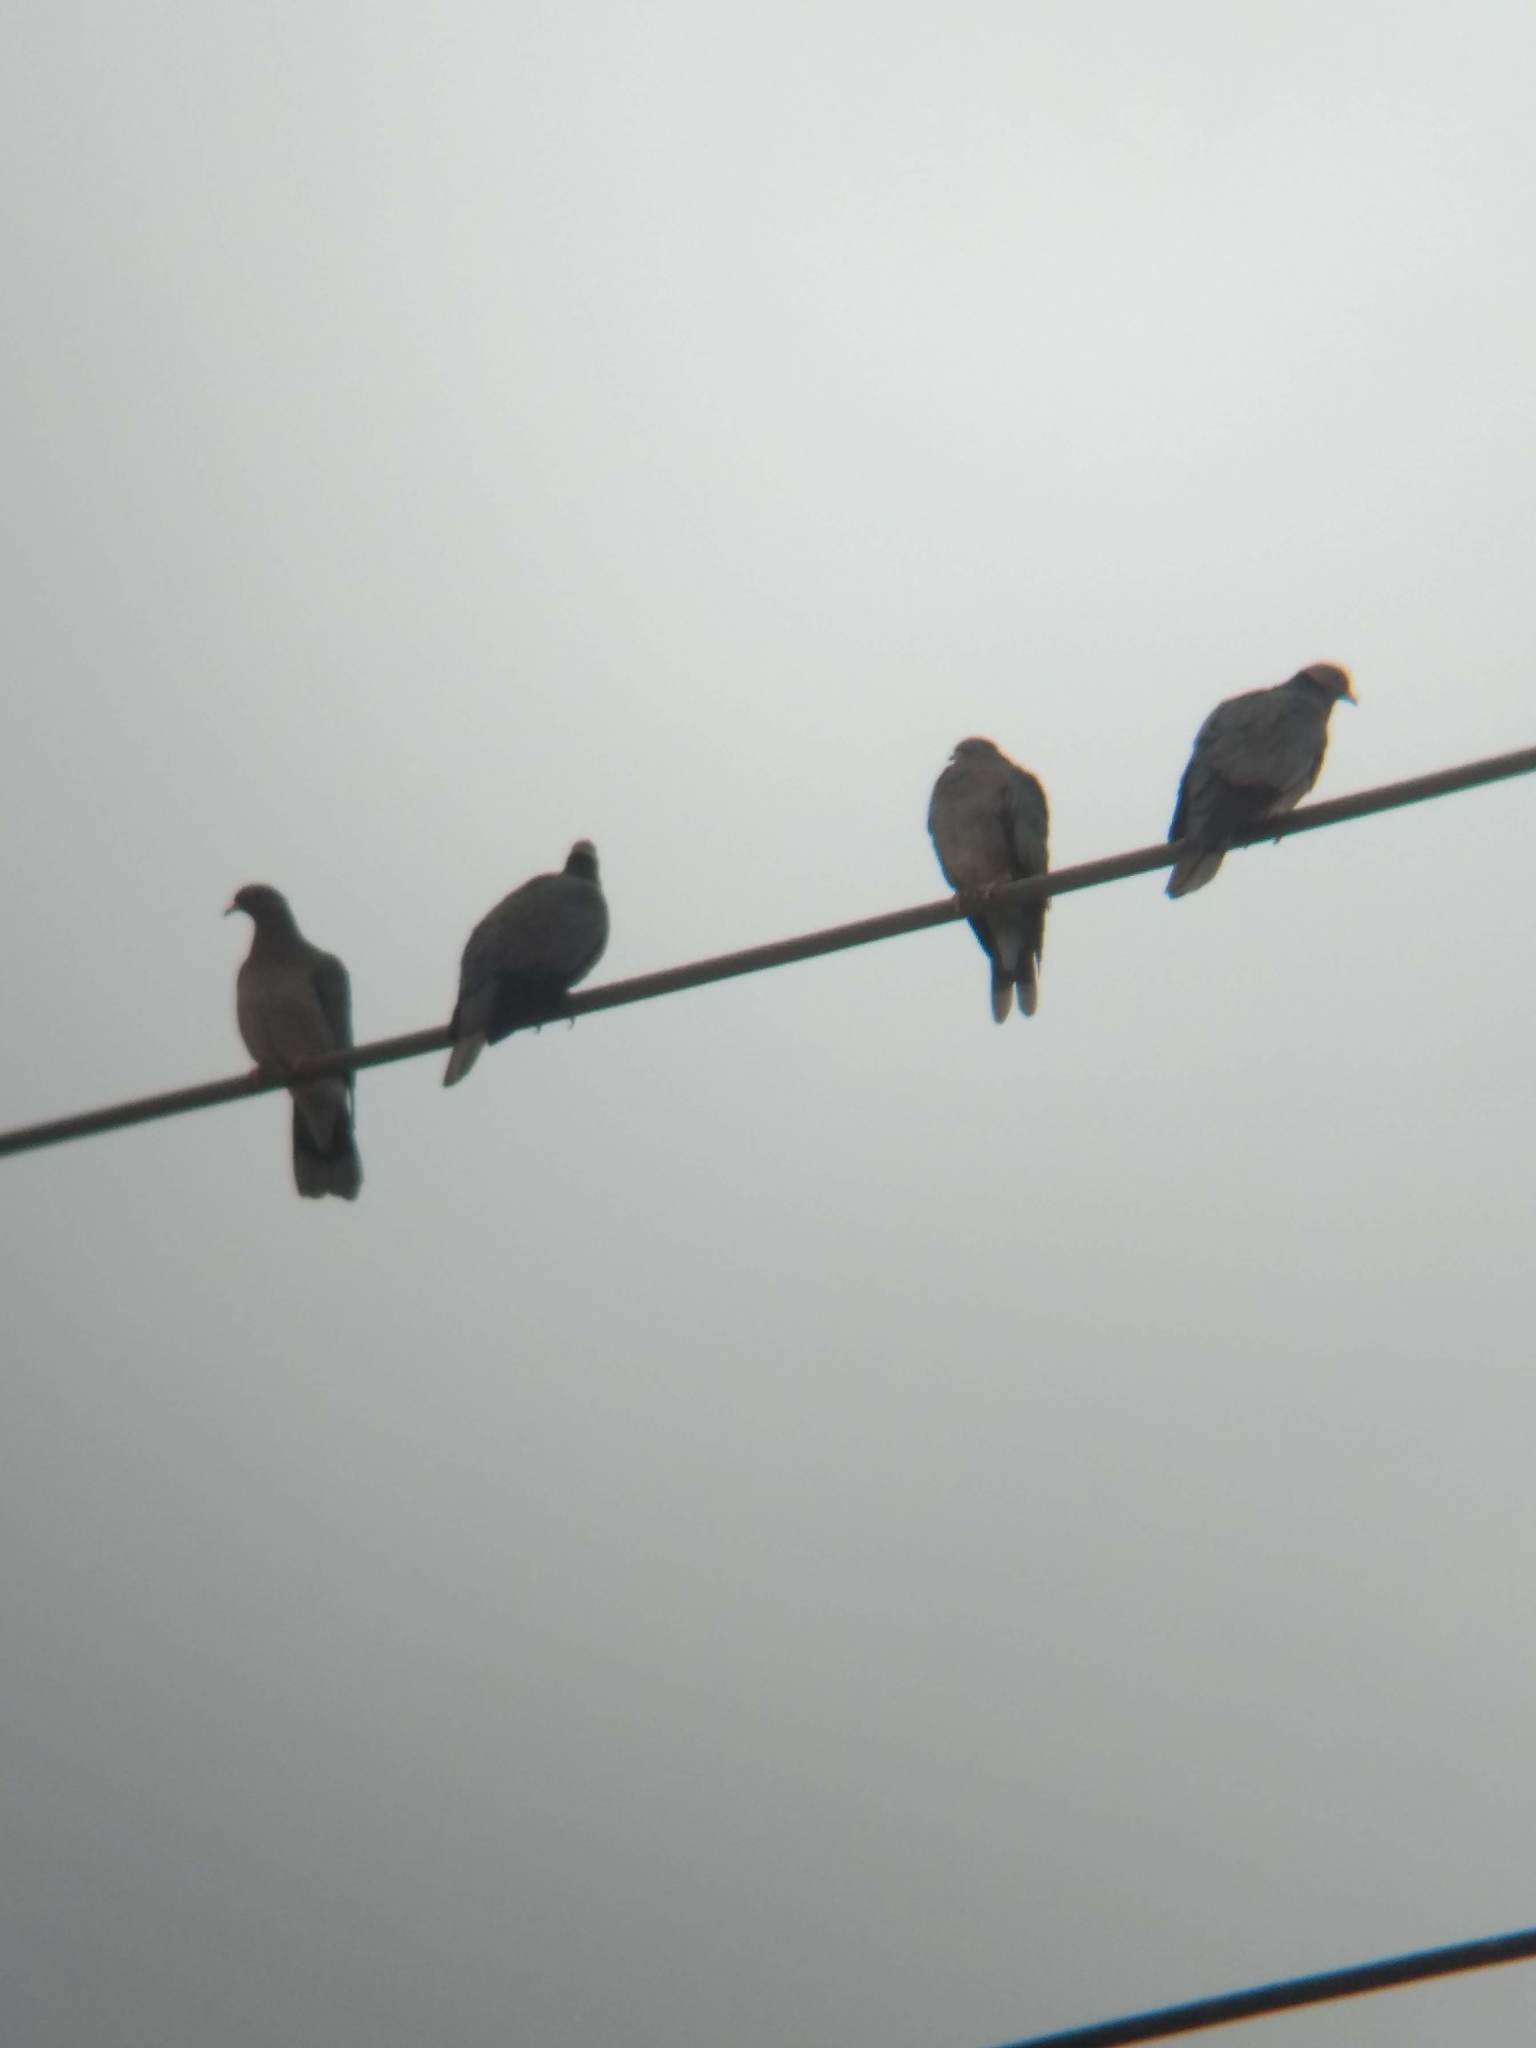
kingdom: Animalia
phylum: Chordata
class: Aves
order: Columbiformes
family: Columbidae
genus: Patagioenas
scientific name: Patagioenas fasciata
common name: Band-tailed pigeon
